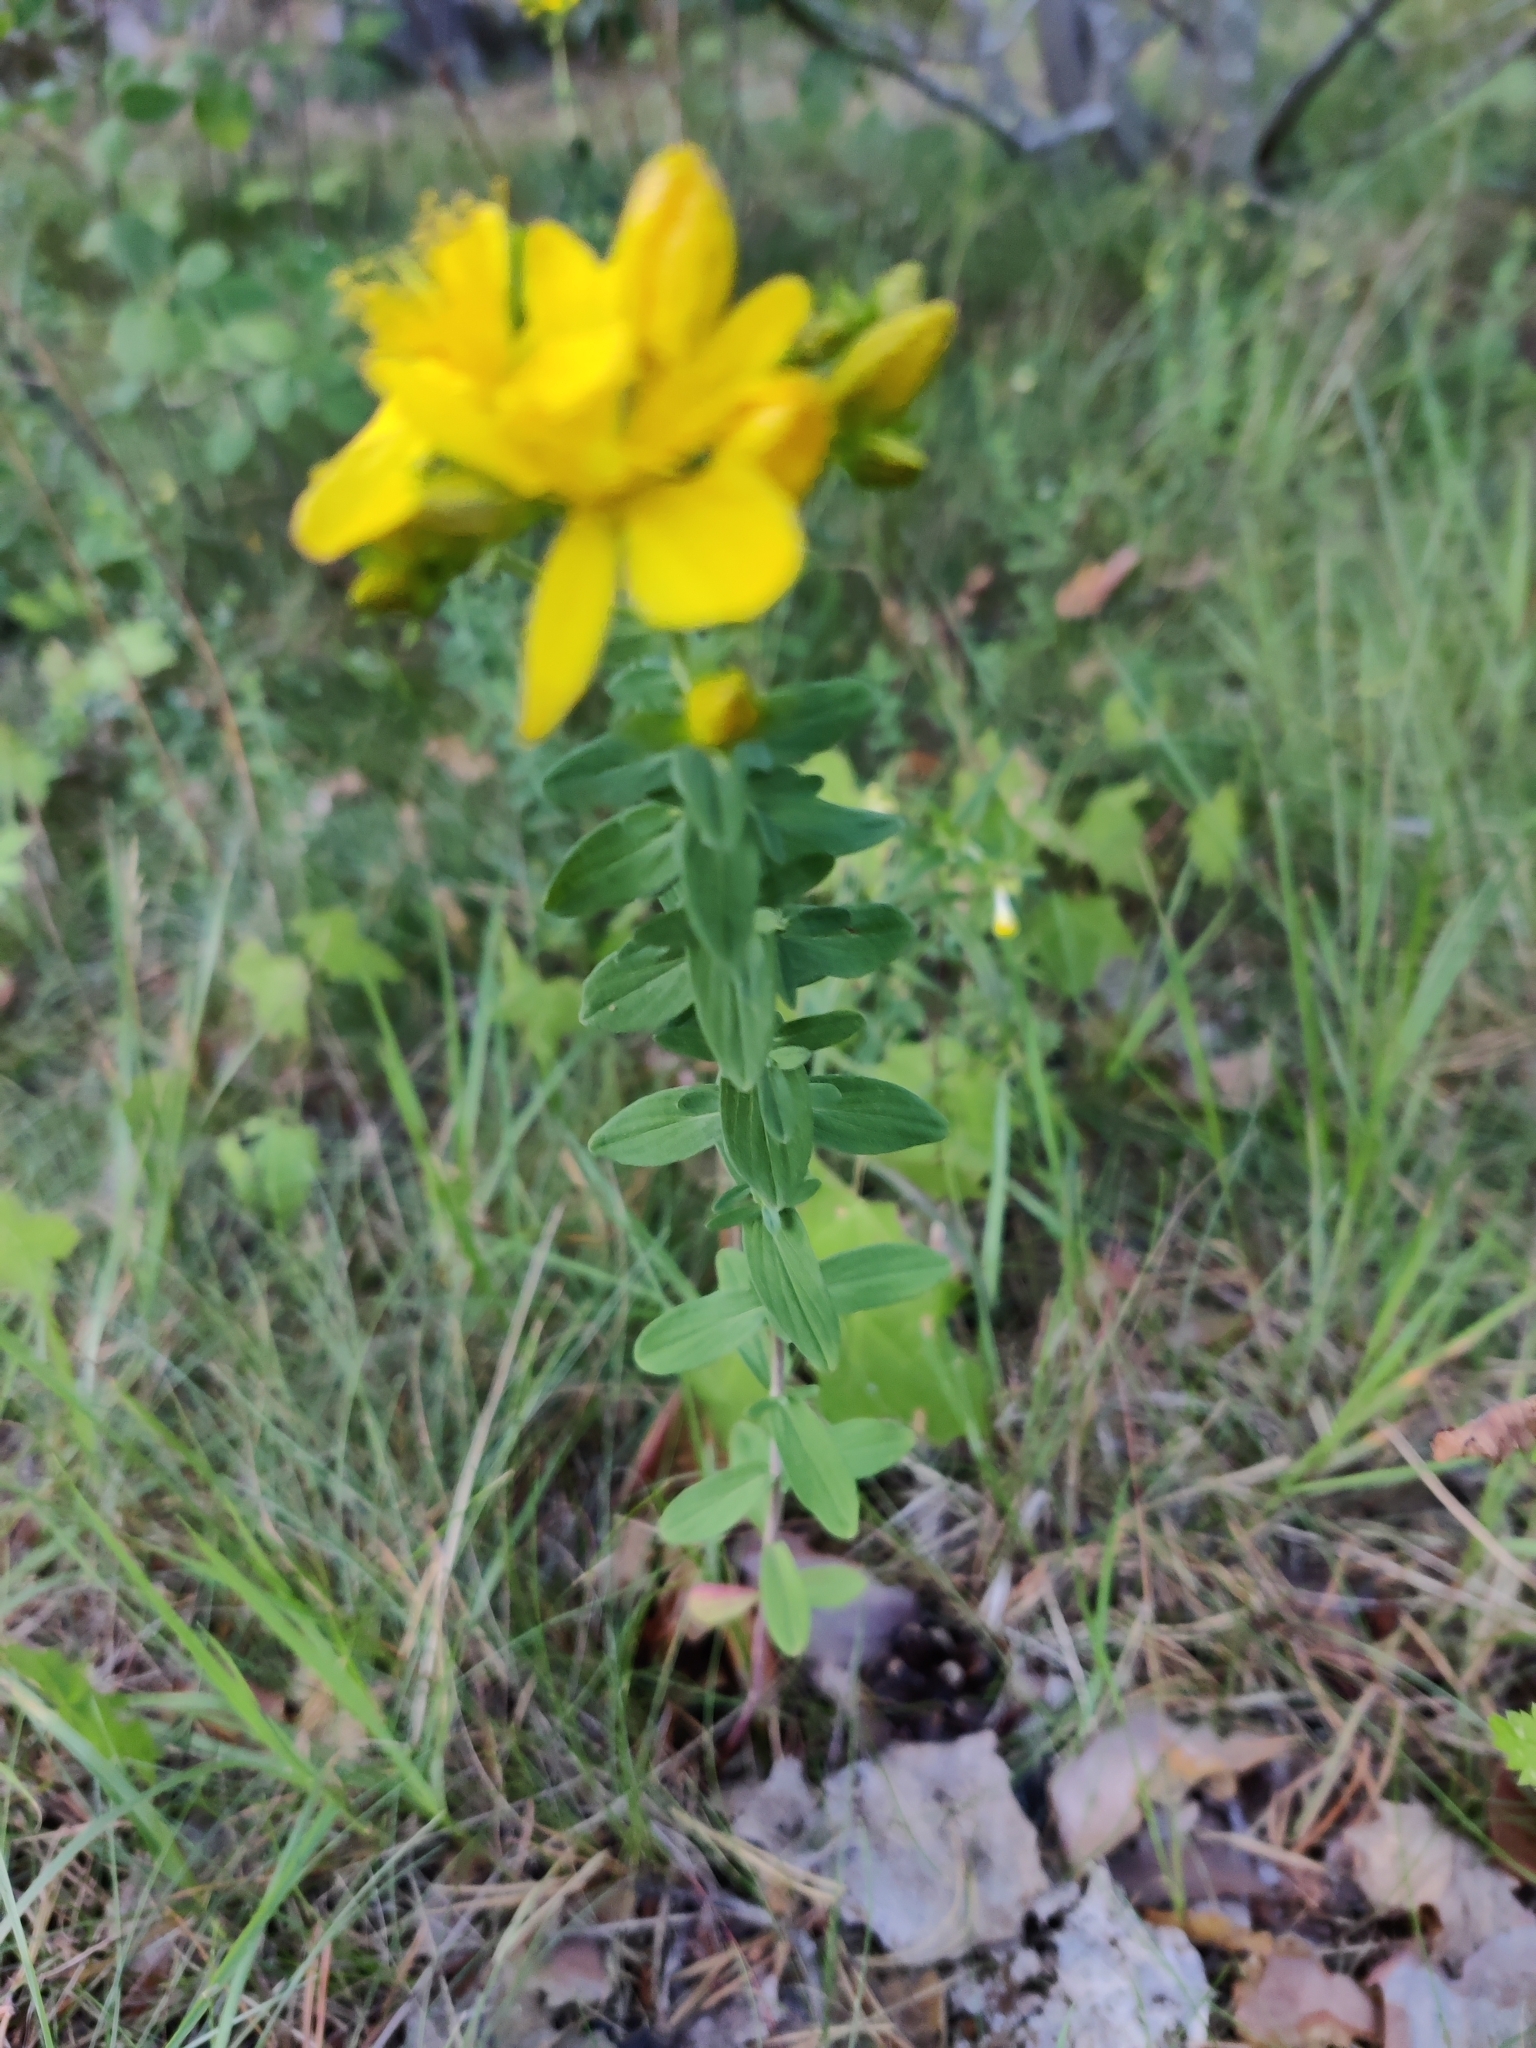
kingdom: Plantae
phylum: Tracheophyta
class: Magnoliopsida
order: Malpighiales
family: Hypericaceae
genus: Hypericum
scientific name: Hypericum perforatum
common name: Common st. johnswort
